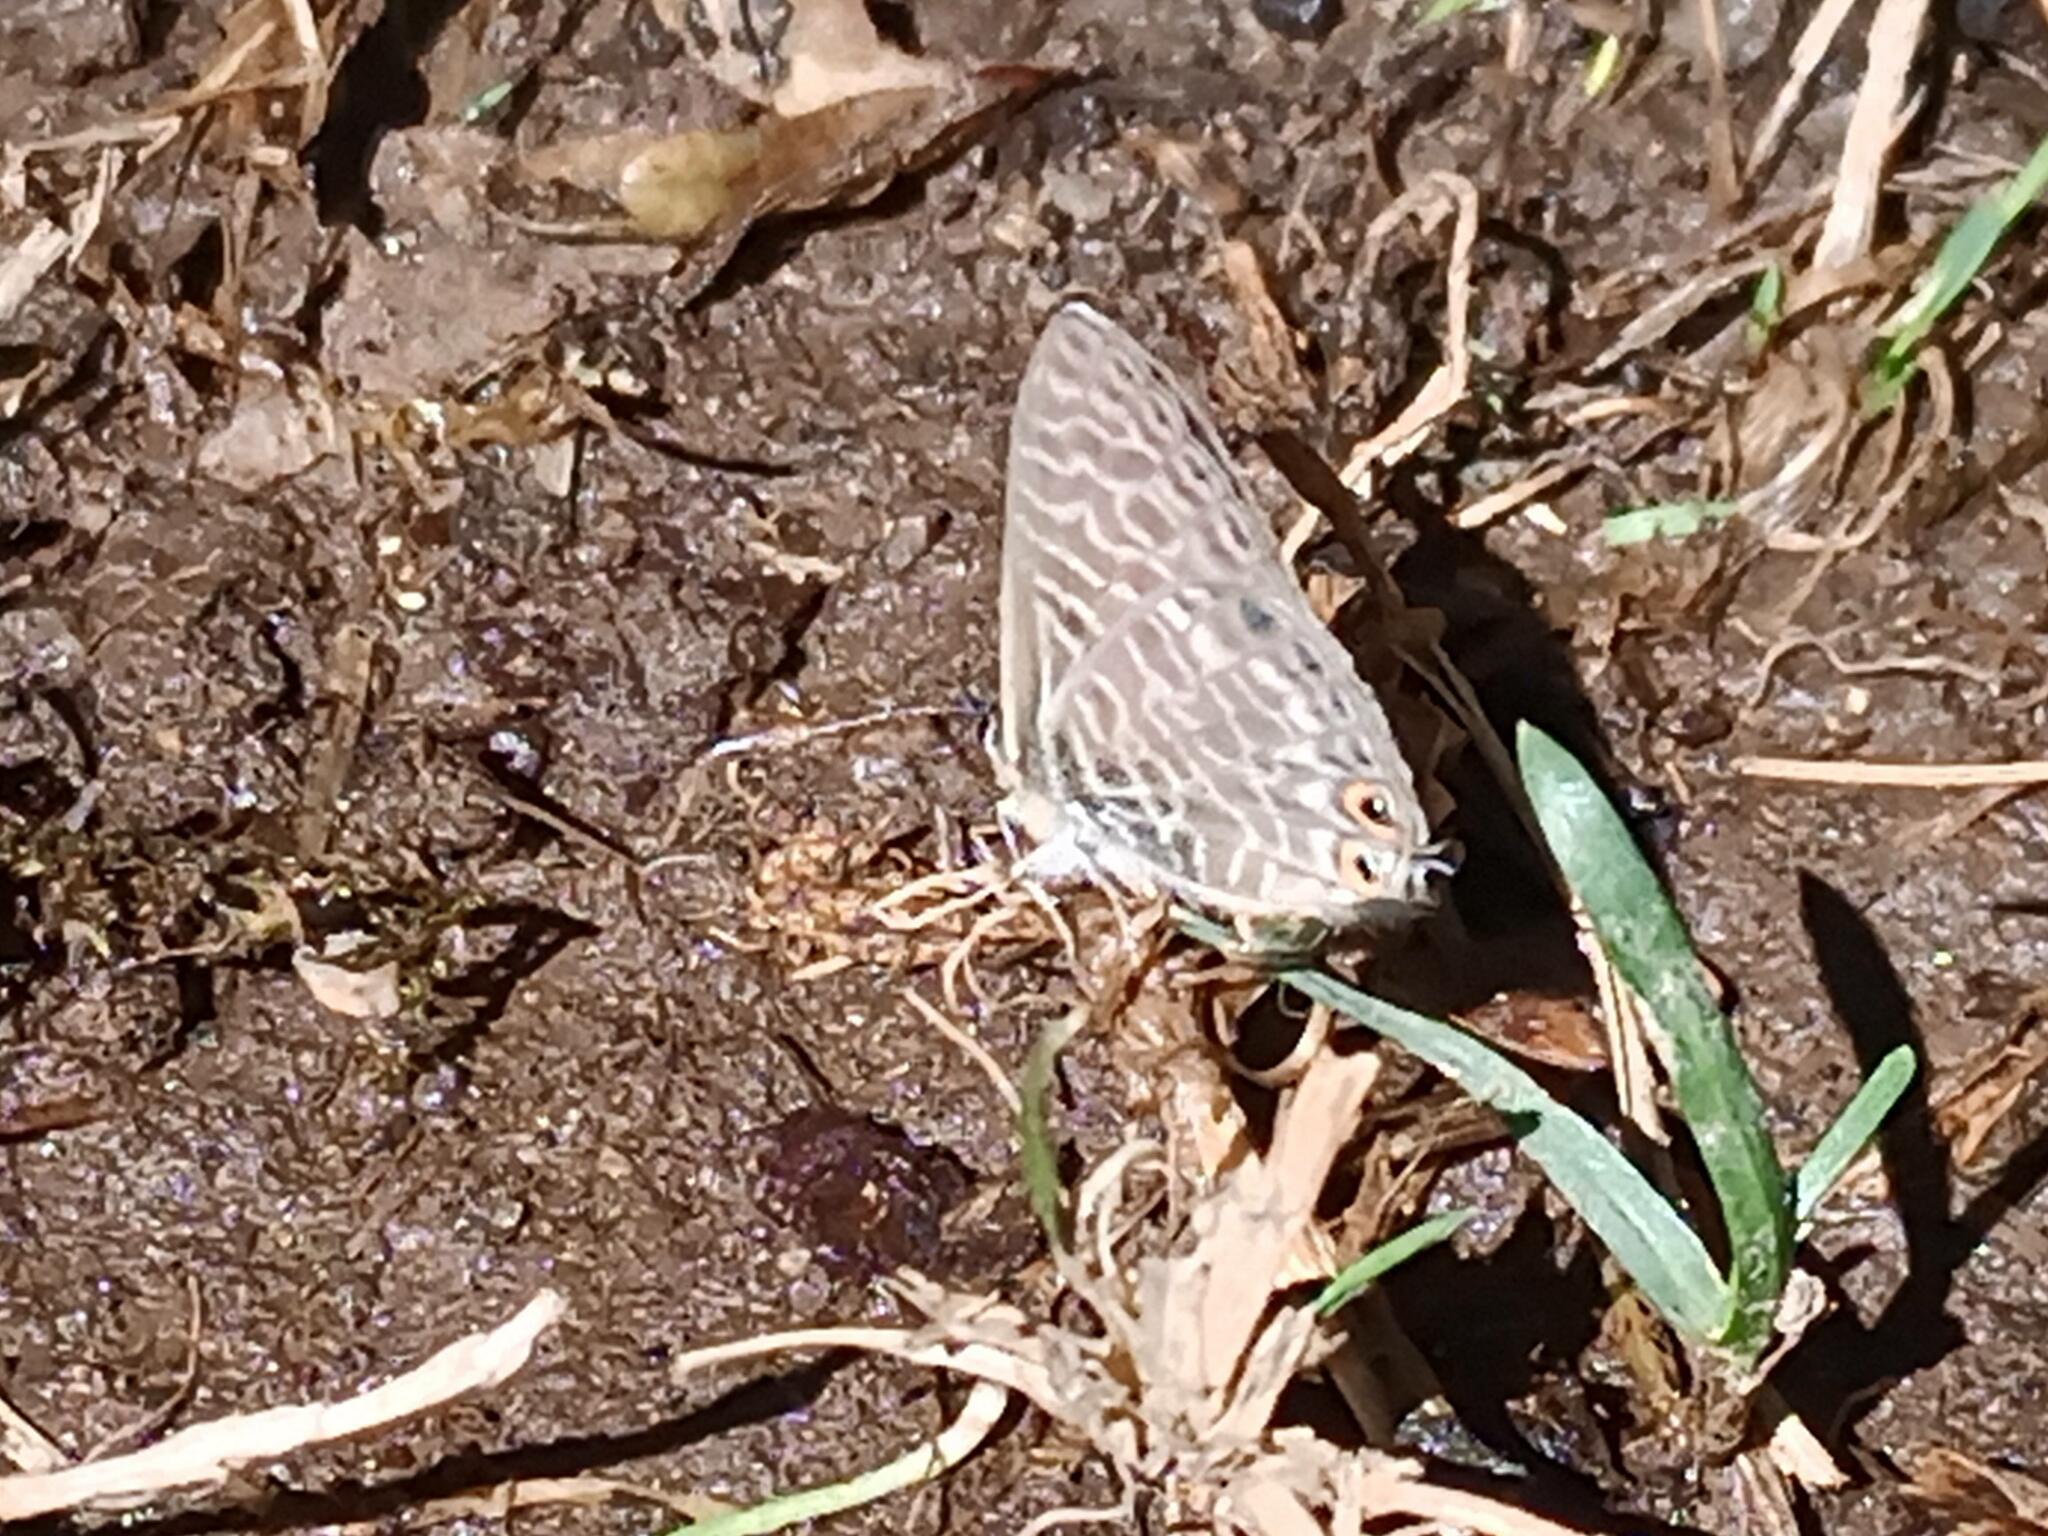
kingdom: Animalia
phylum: Arthropoda
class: Insecta
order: Lepidoptera
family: Lycaenidae
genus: Leptotes
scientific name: Leptotes pirithous
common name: Lang's short-tailed blue
